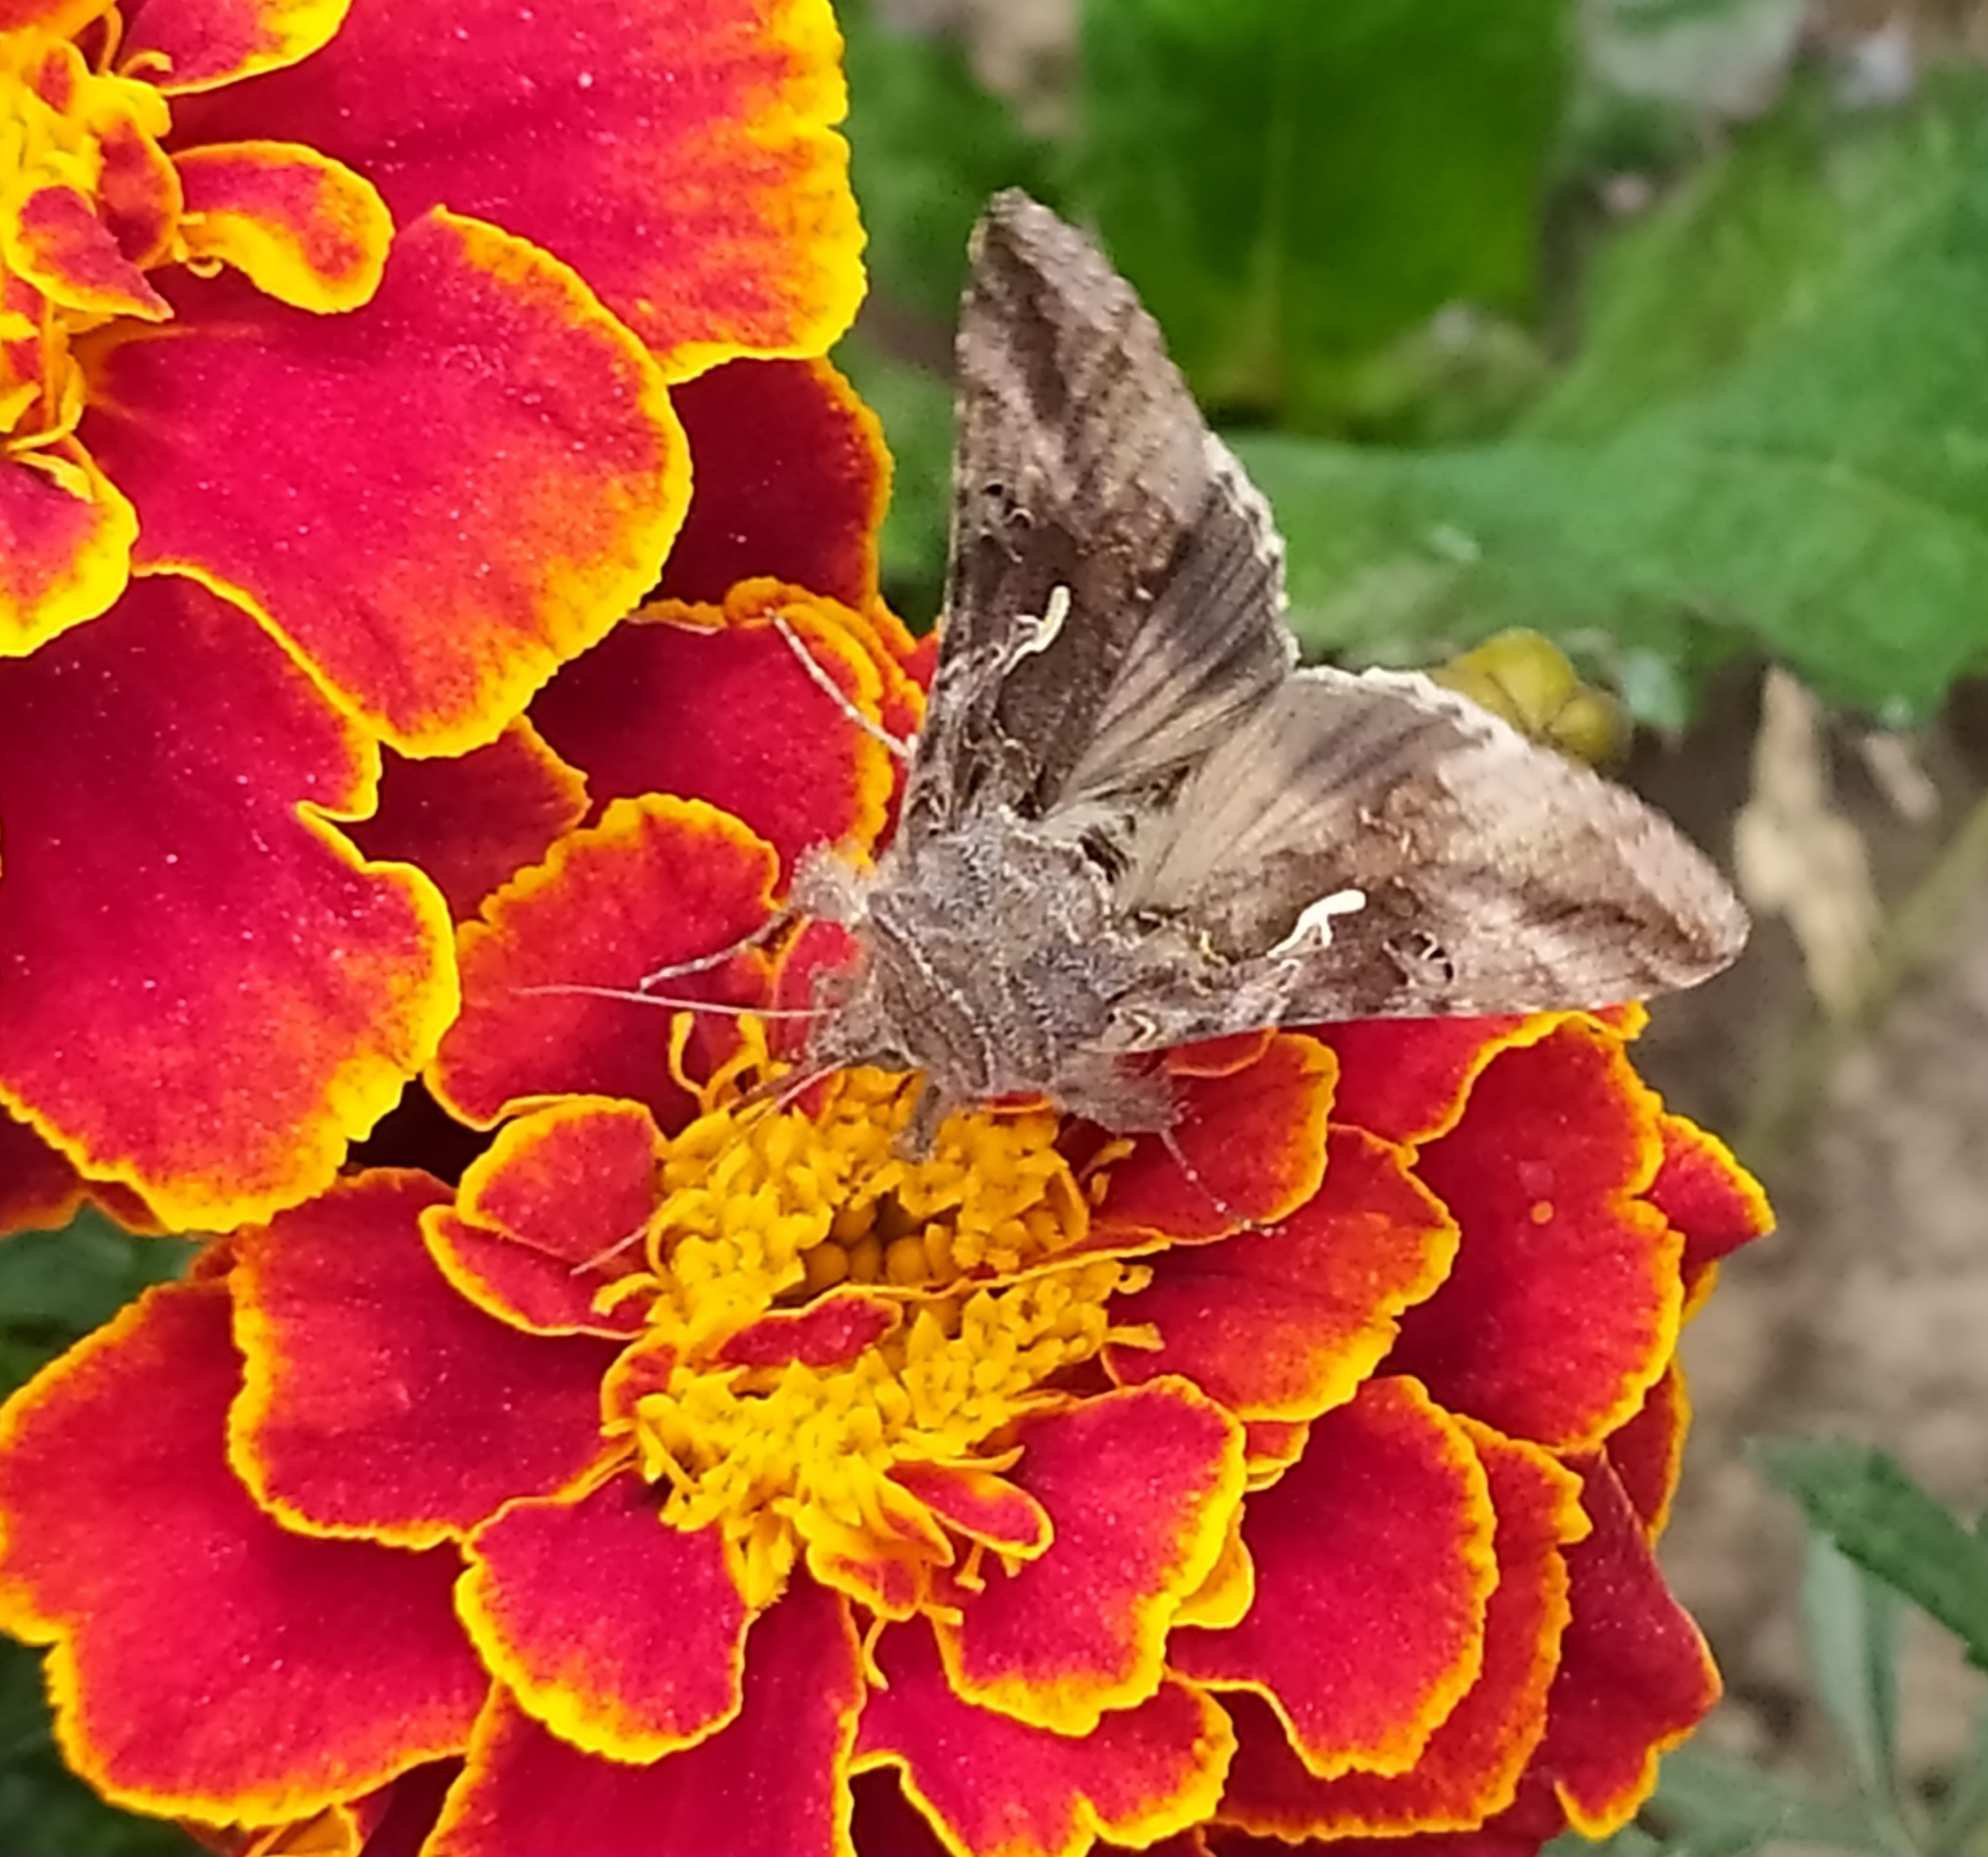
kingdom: Animalia
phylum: Arthropoda
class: Insecta
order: Lepidoptera
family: Noctuidae
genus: Autographa
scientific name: Autographa gamma
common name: Silver y
